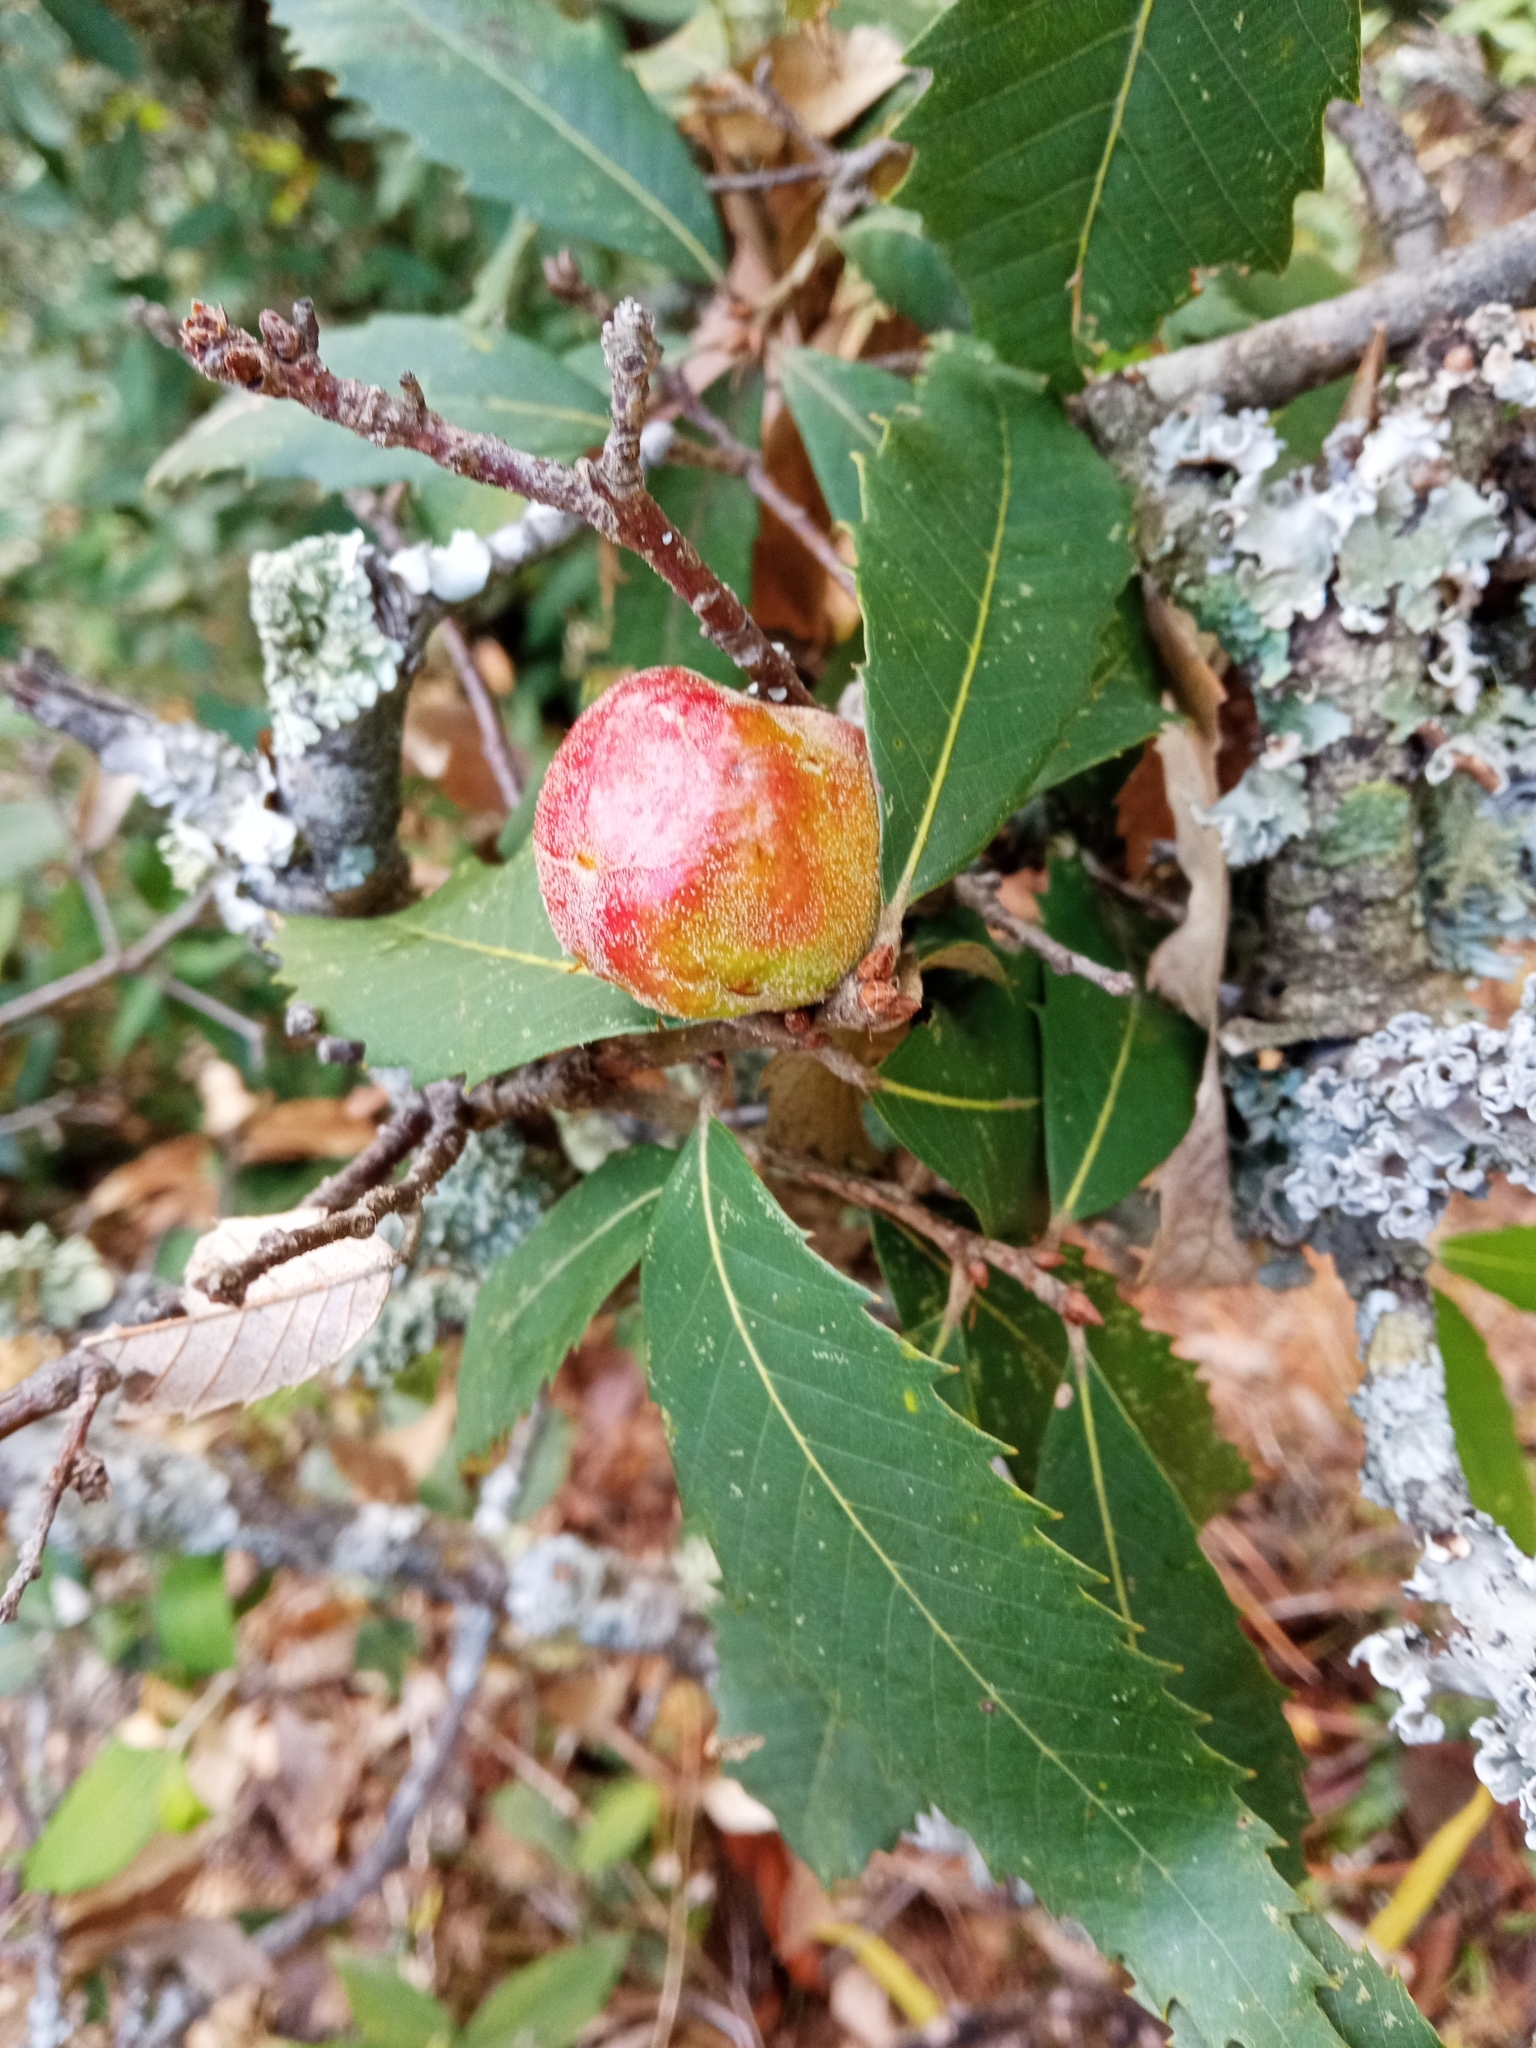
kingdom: Plantae
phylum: Tracheophyta
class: Magnoliopsida
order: Fagales
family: Fagaceae
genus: Quercus
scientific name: Quercus leucotrichophora
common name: Banj oak
